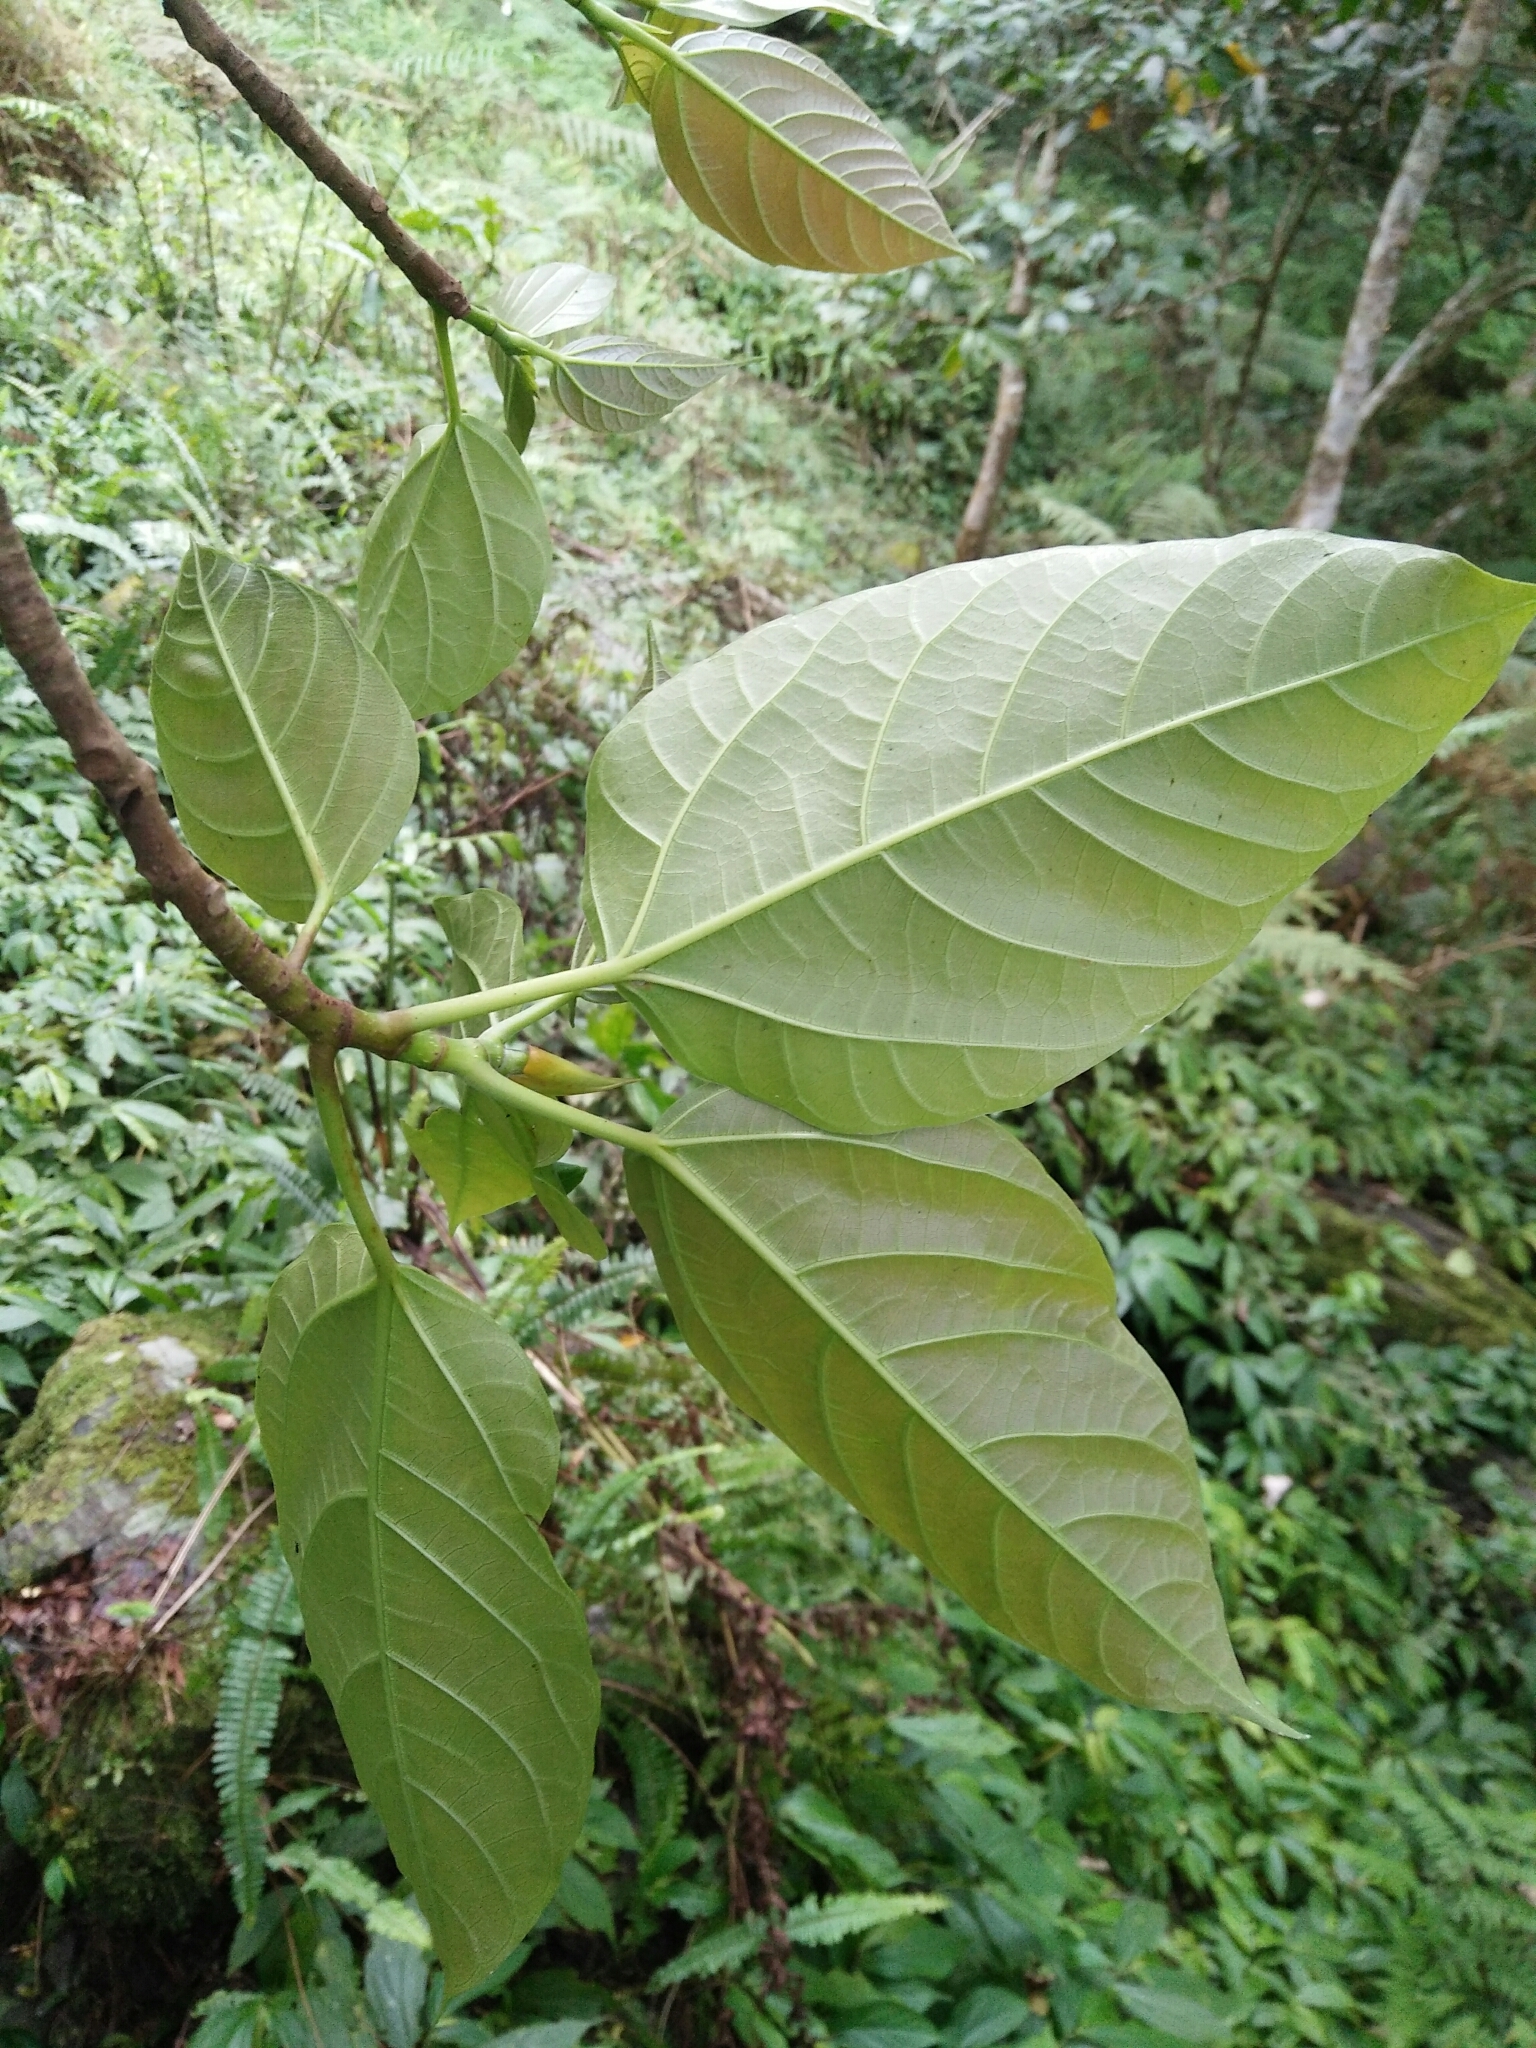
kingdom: Plantae
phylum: Tracheophyta
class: Magnoliopsida
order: Rosales
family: Moraceae
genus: Ficus
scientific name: Ficus variegata
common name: Variegated fig
